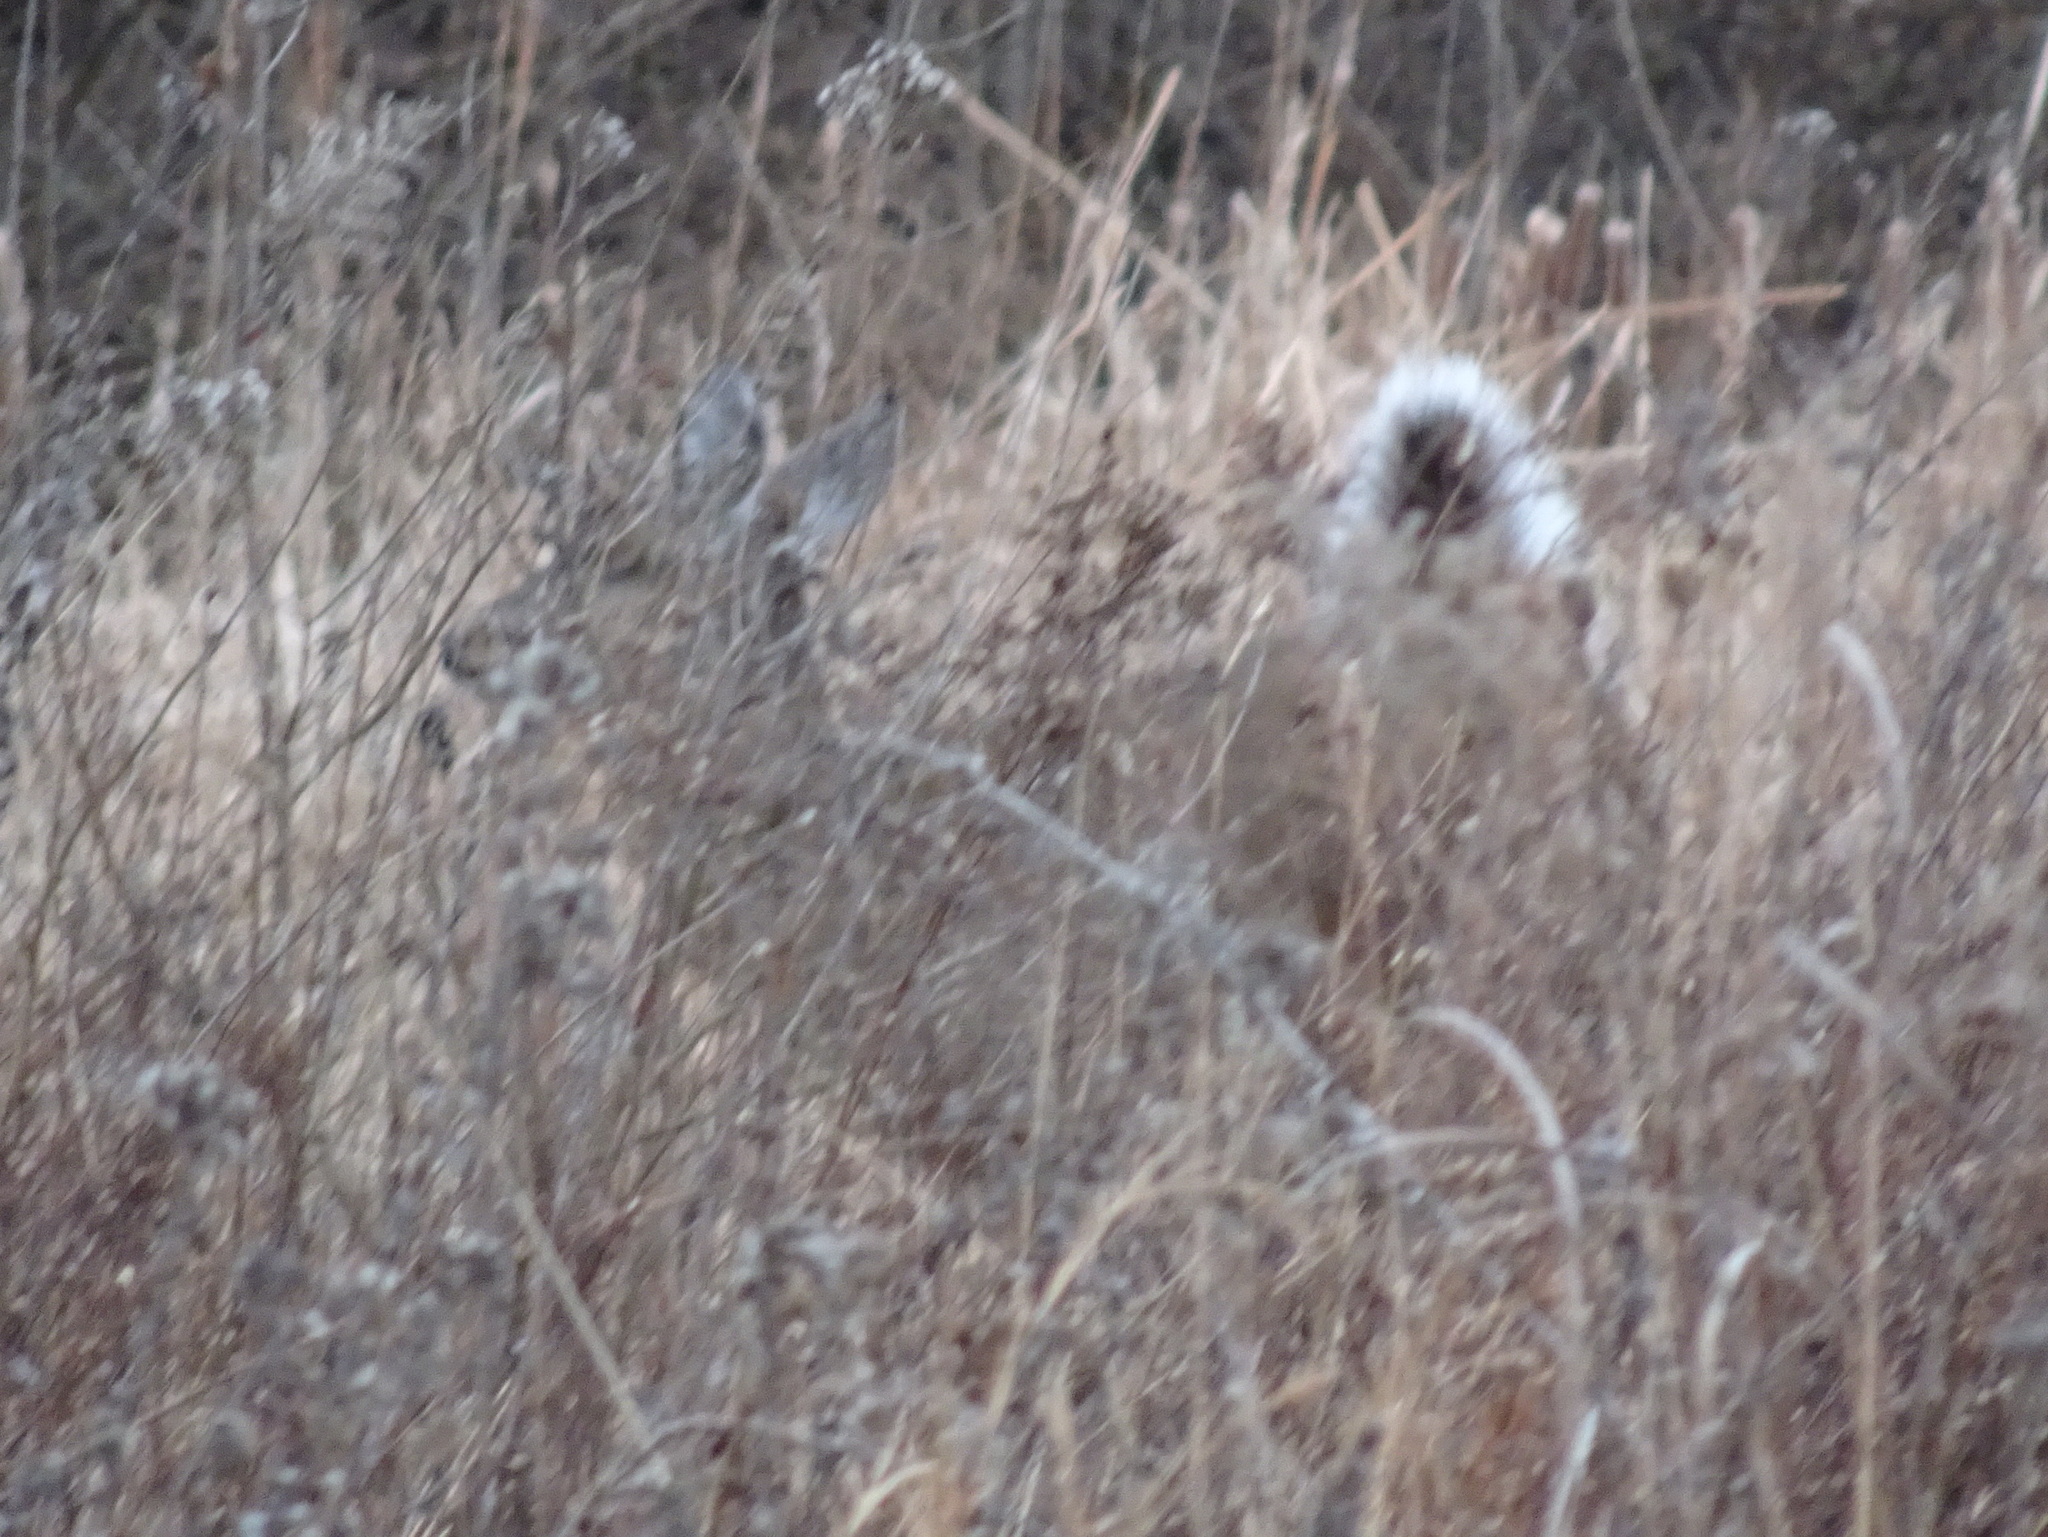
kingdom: Animalia
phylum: Chordata
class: Mammalia
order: Artiodactyla
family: Cervidae
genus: Odocoileus
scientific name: Odocoileus virginianus
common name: White-tailed deer
